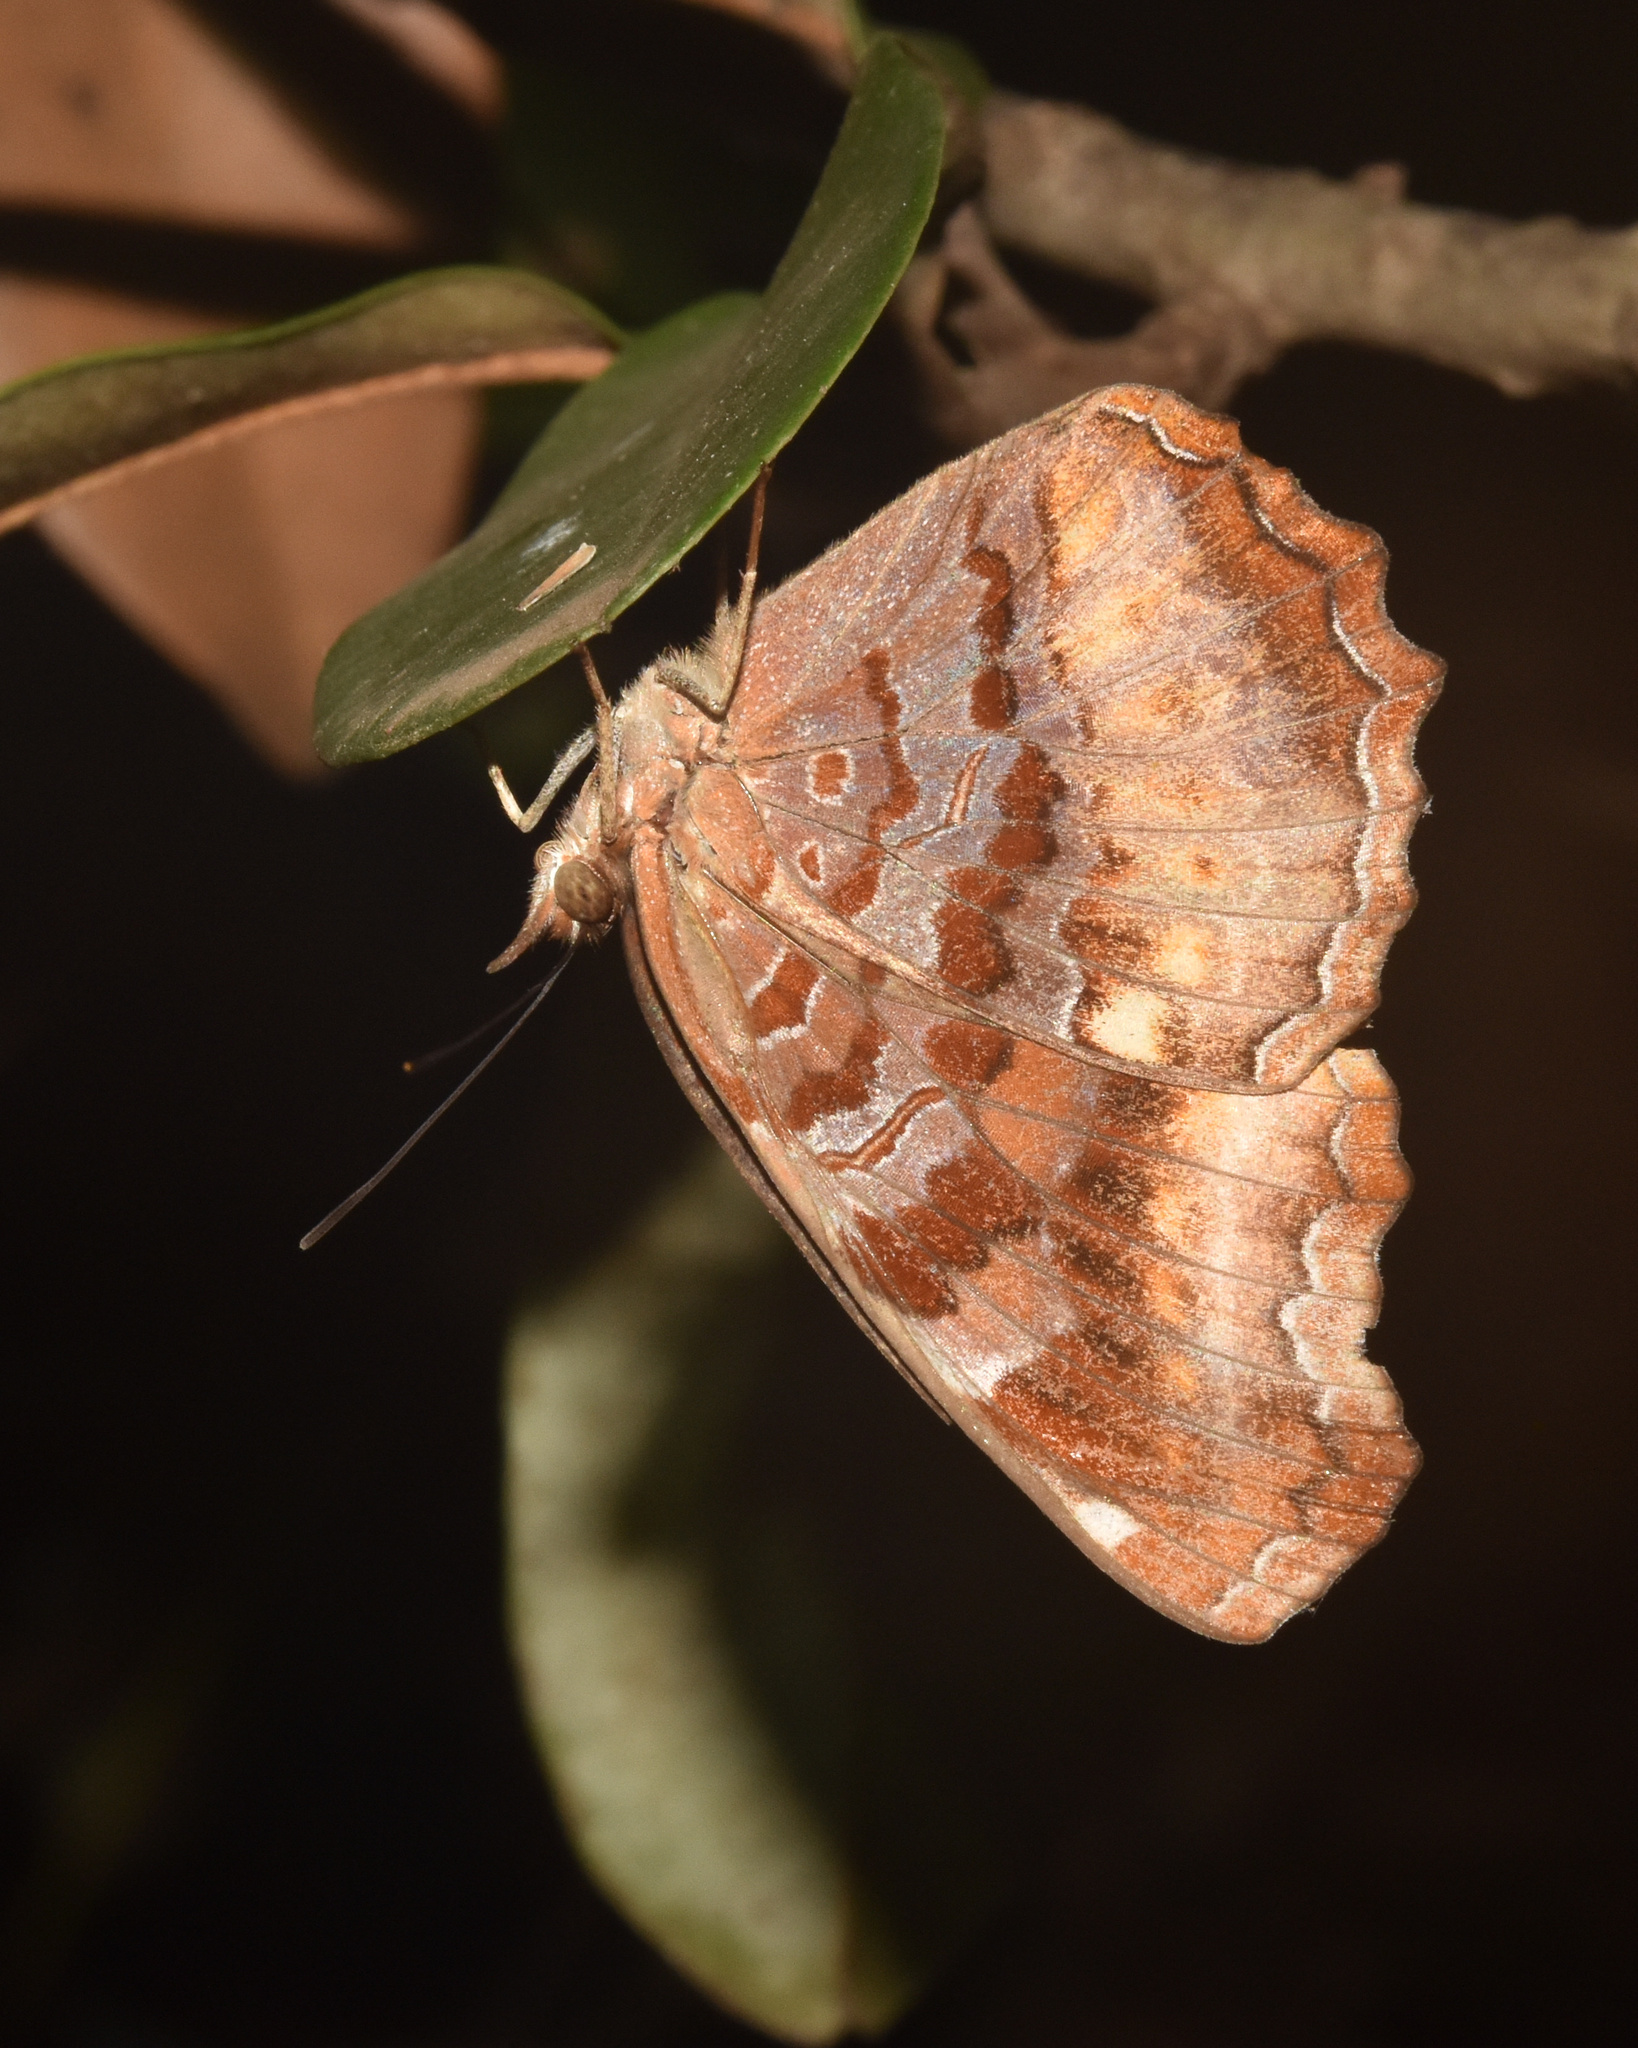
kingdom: Animalia
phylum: Arthropoda
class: Insecta
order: Lepidoptera
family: Nymphalidae
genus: Eurytela
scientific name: Eurytela hiarbas
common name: Pied piper
